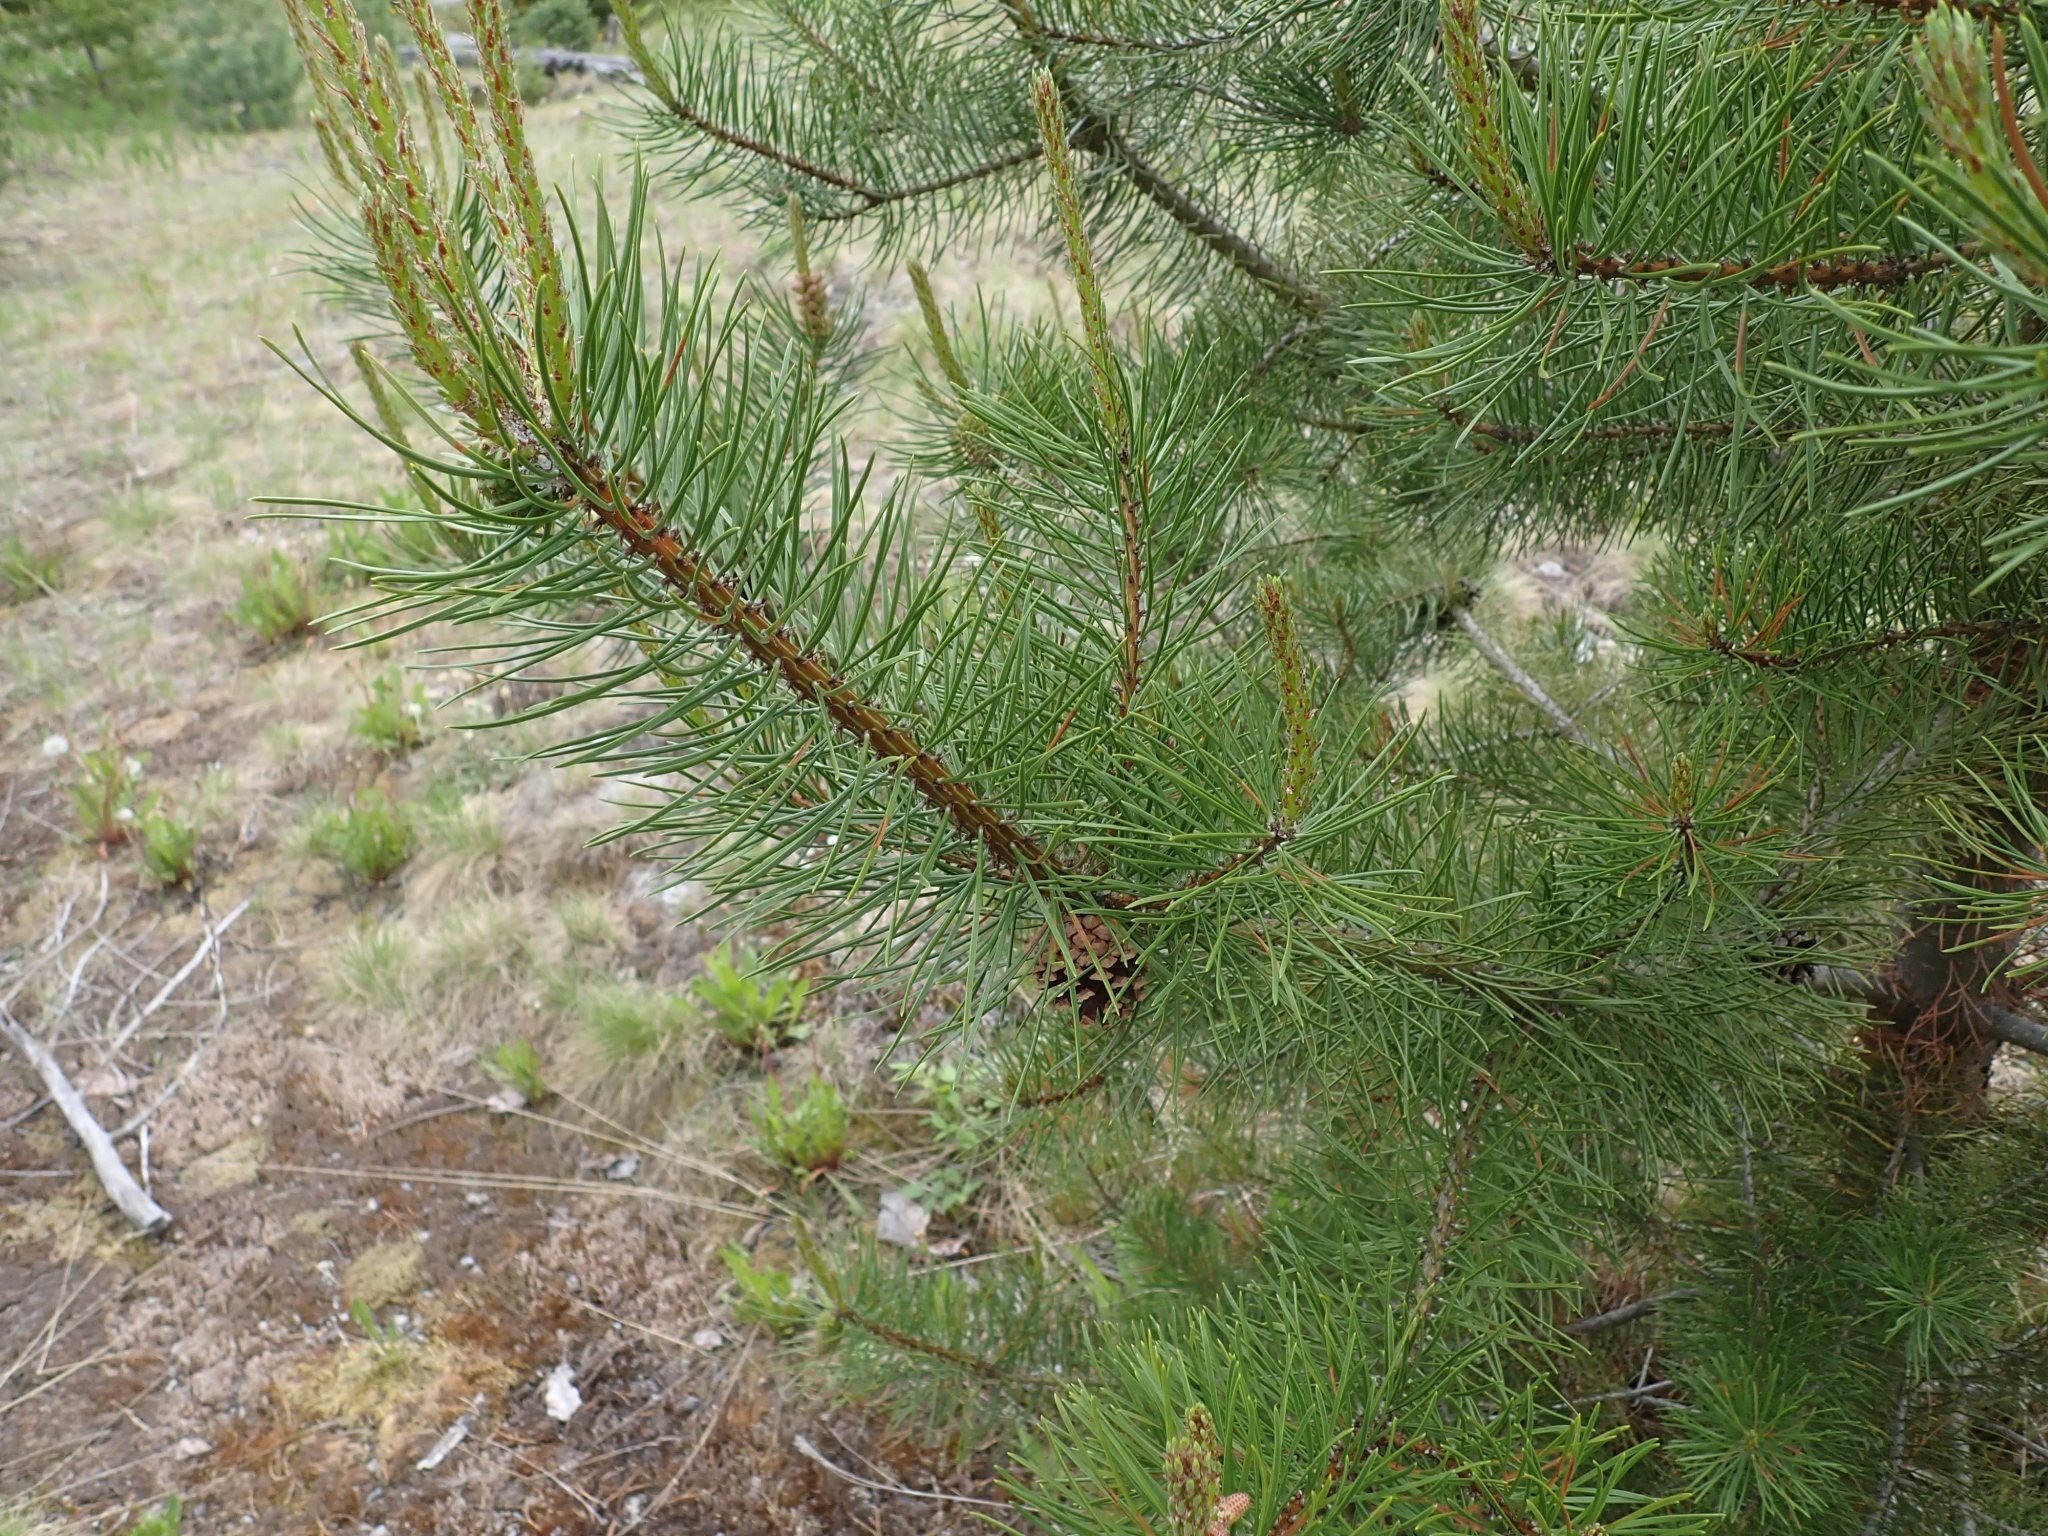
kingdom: Plantae
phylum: Tracheophyta
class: Pinopsida
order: Pinales
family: Pinaceae
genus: Pinus
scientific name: Pinus contorta
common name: Lodgepole pine
